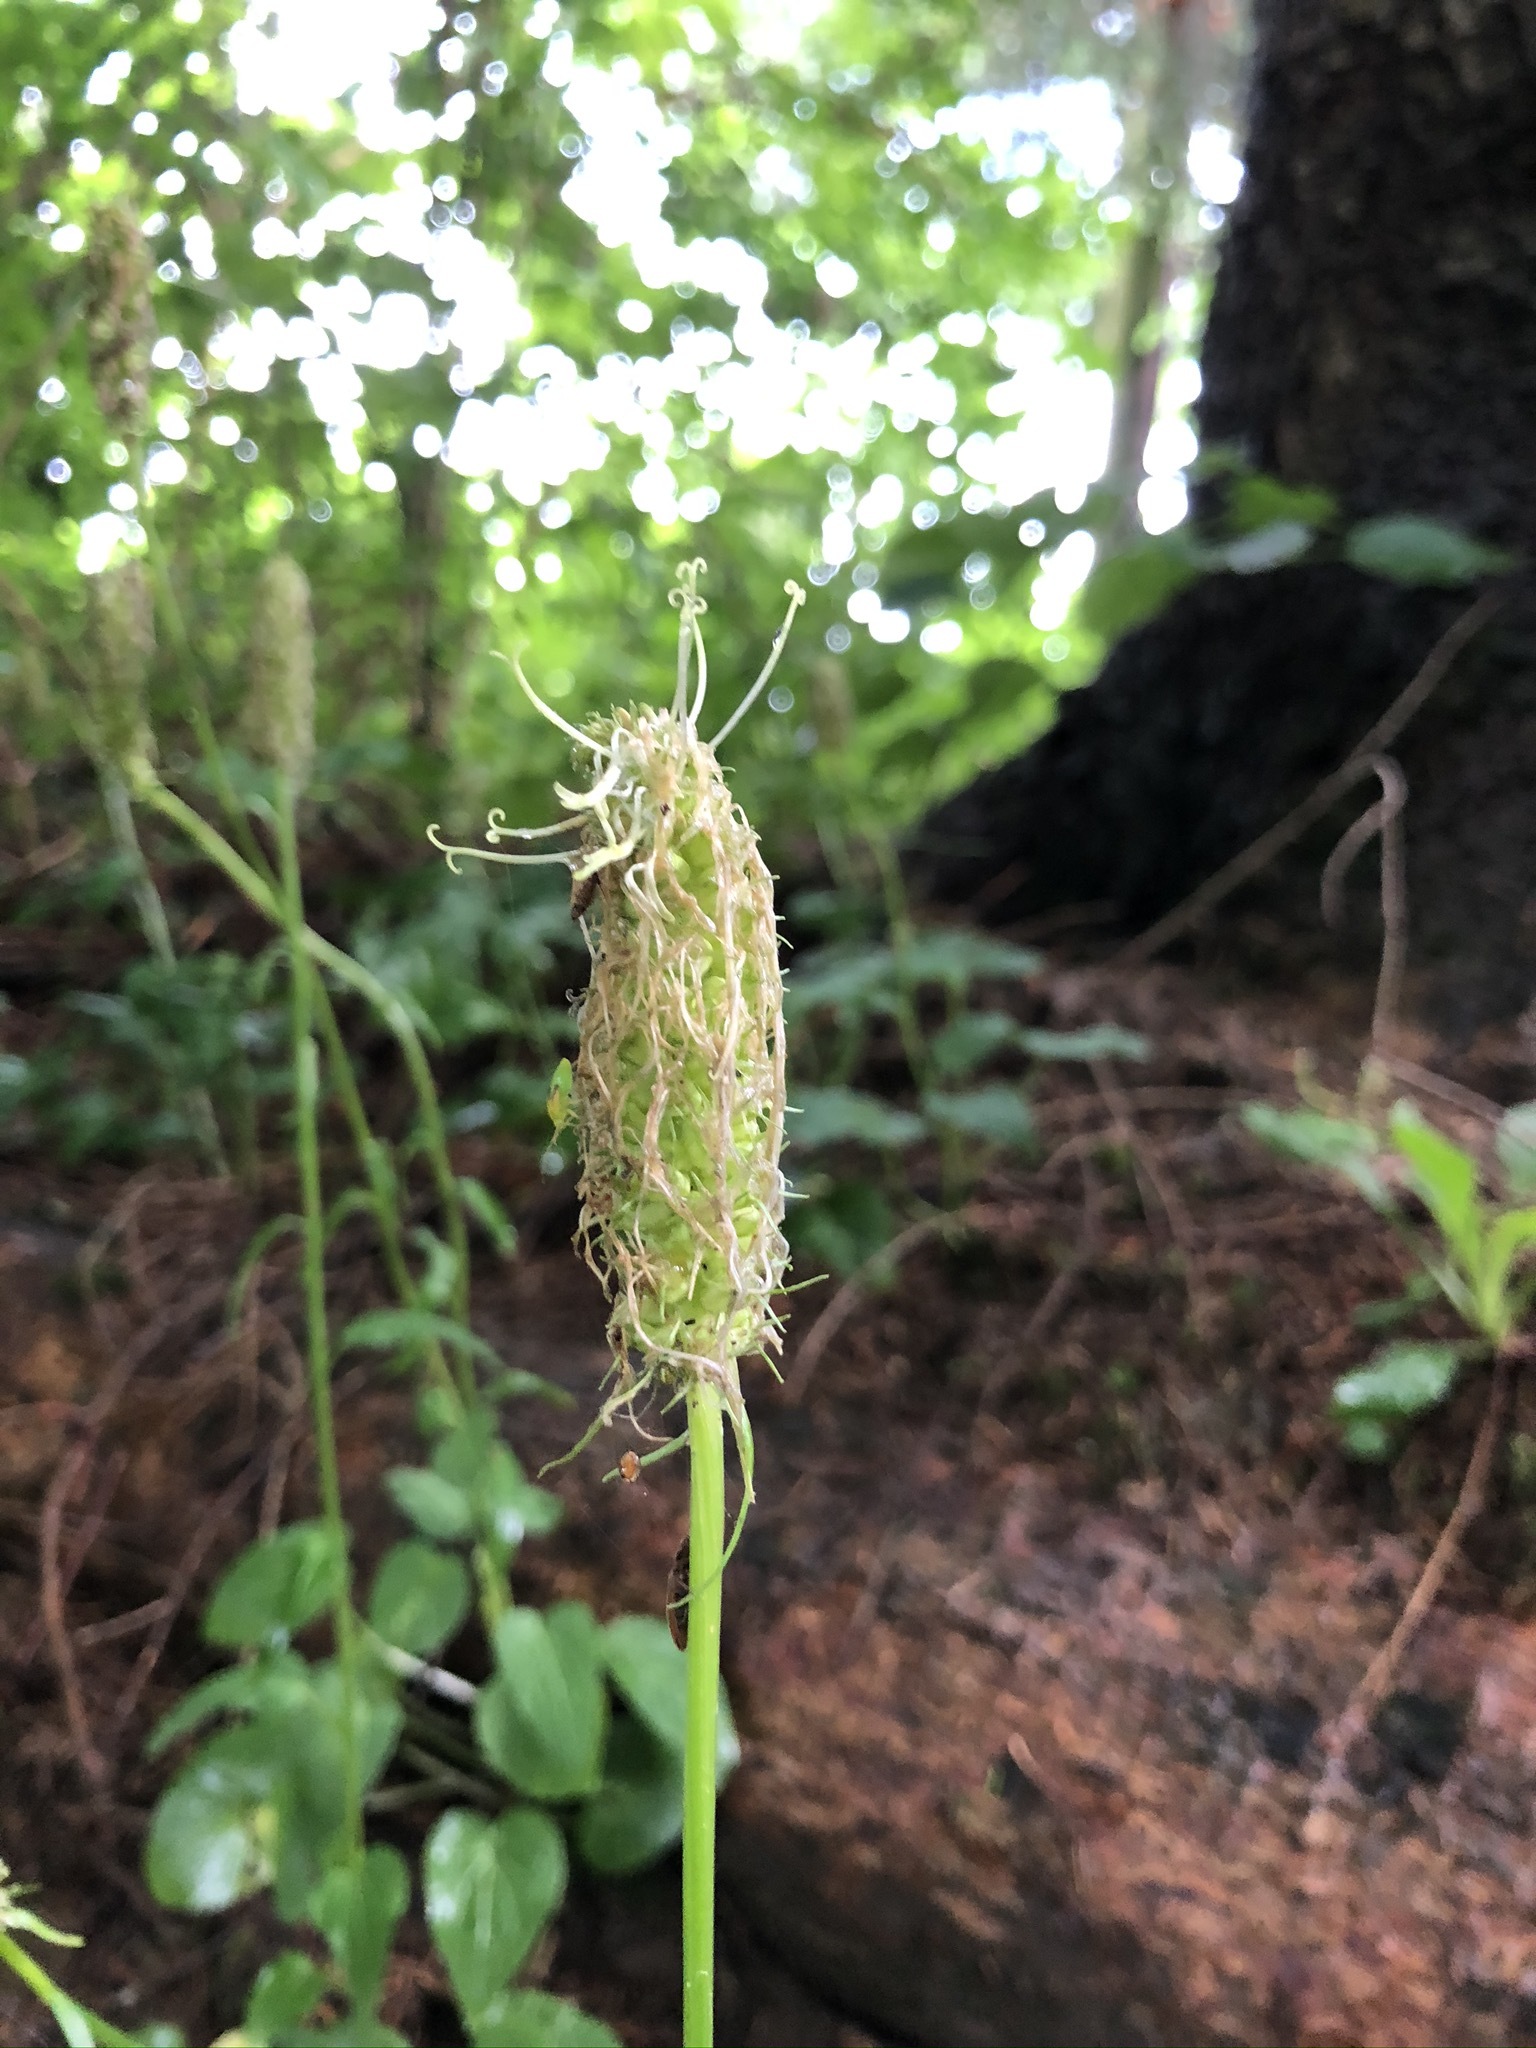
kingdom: Plantae
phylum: Tracheophyta
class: Magnoliopsida
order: Asterales
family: Campanulaceae
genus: Phyteuma
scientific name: Phyteuma spicatum
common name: Spiked rampion
